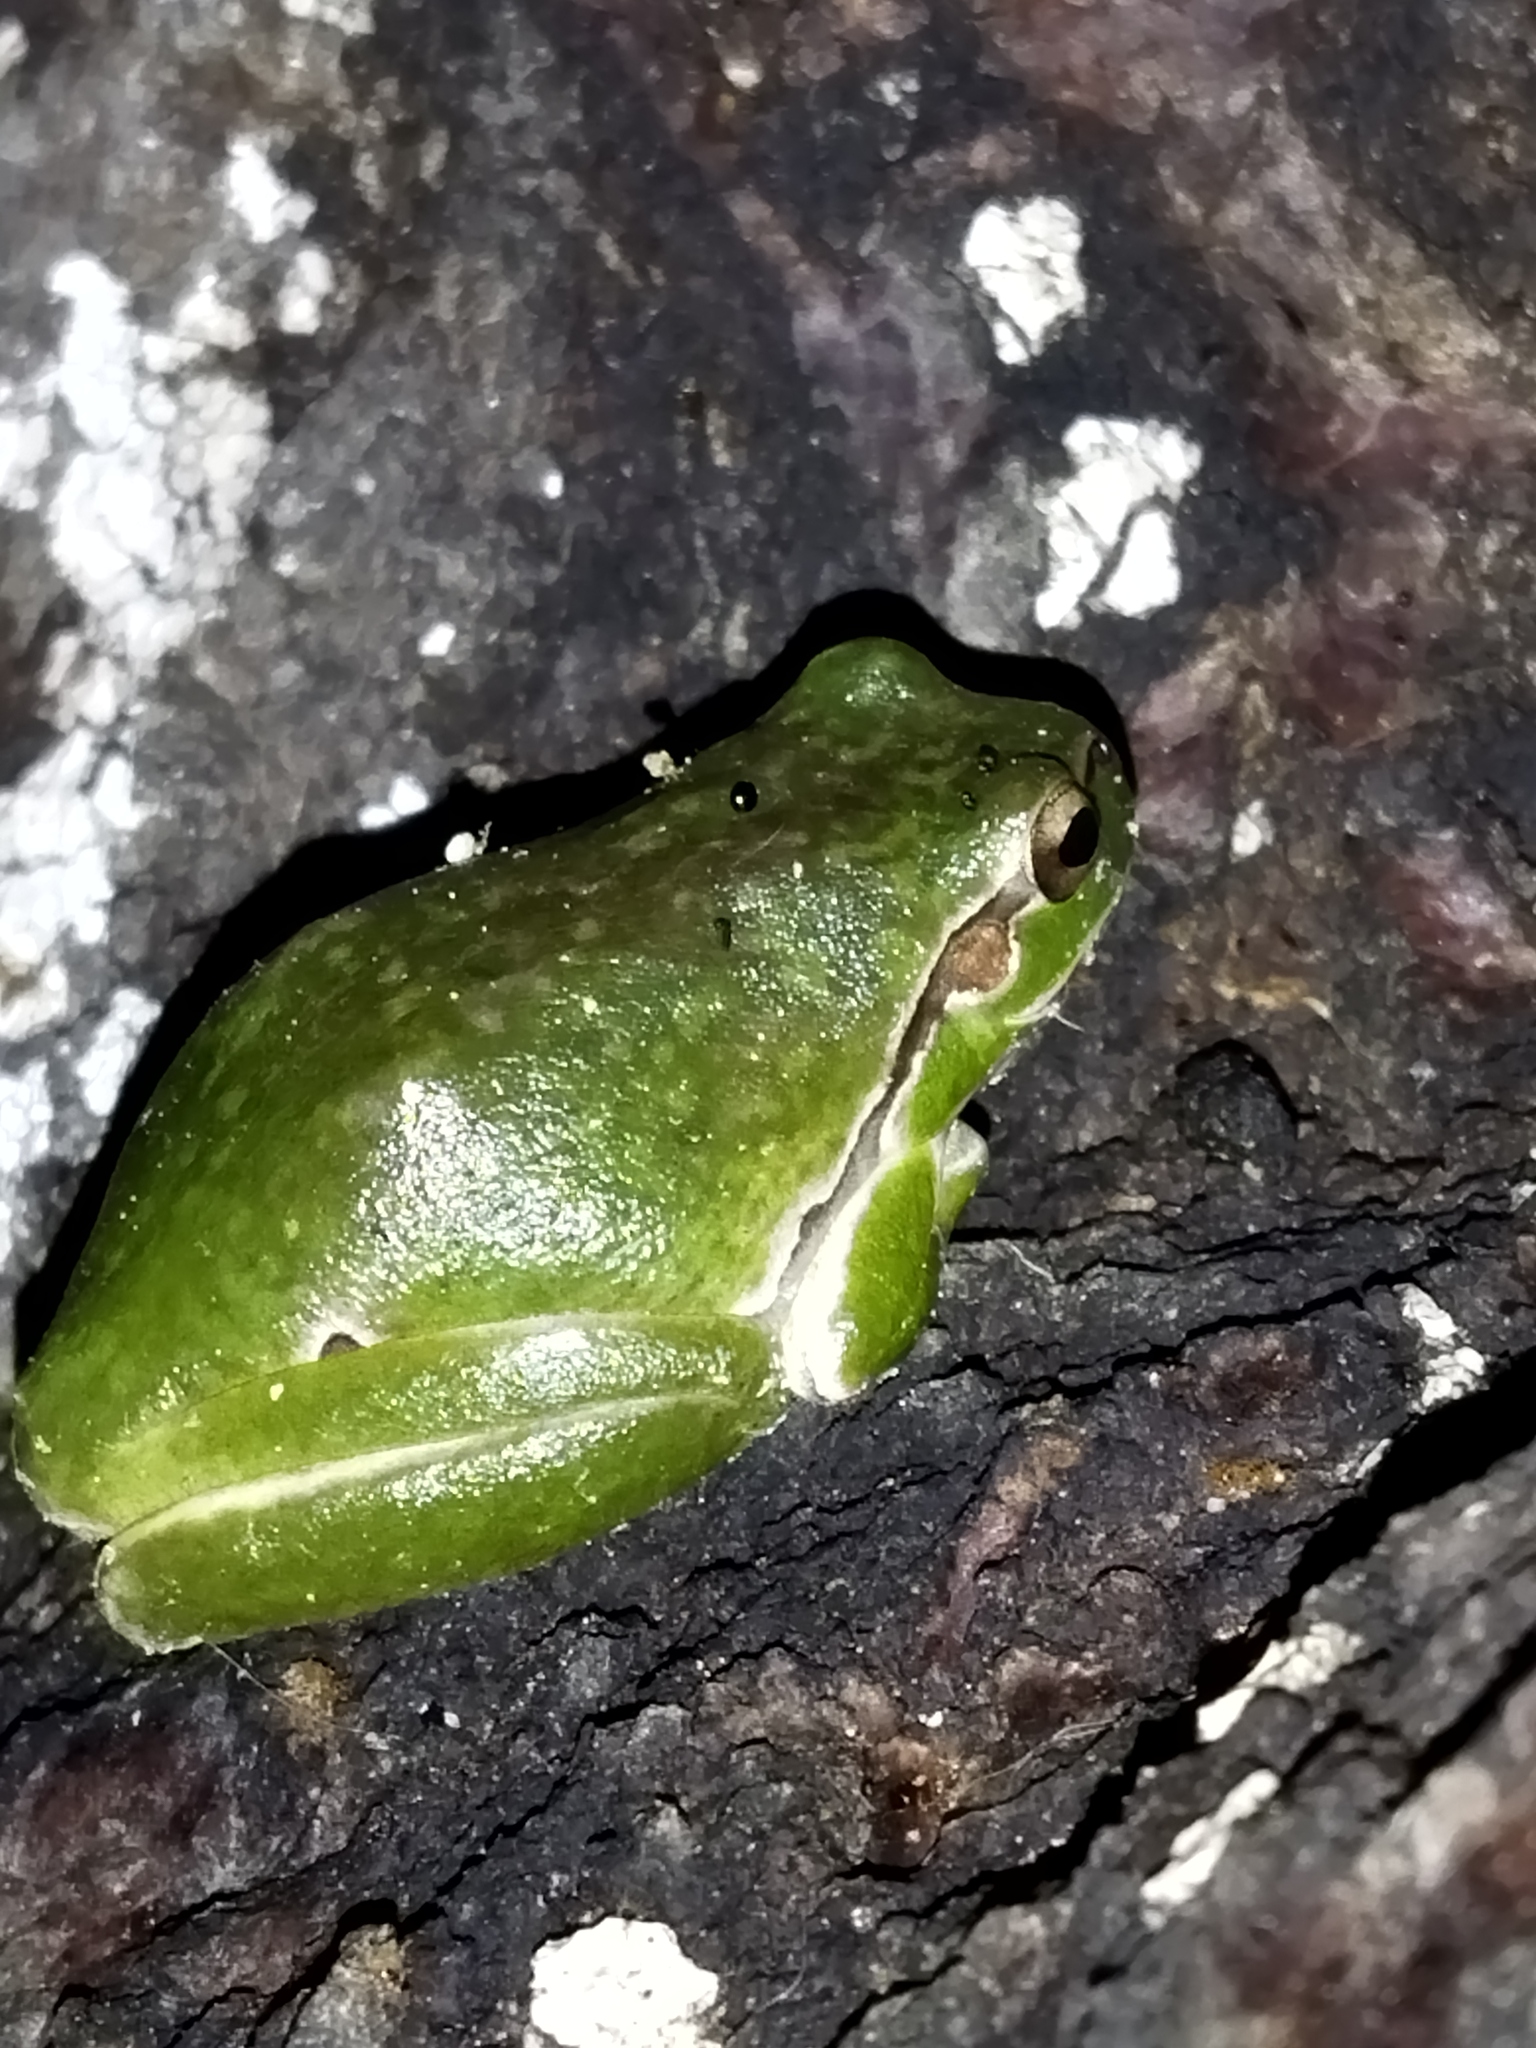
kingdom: Animalia
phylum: Chordata
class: Amphibia
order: Anura
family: Hylidae
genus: Hyla
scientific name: Hyla orientalis
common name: Caucasian treefrog
